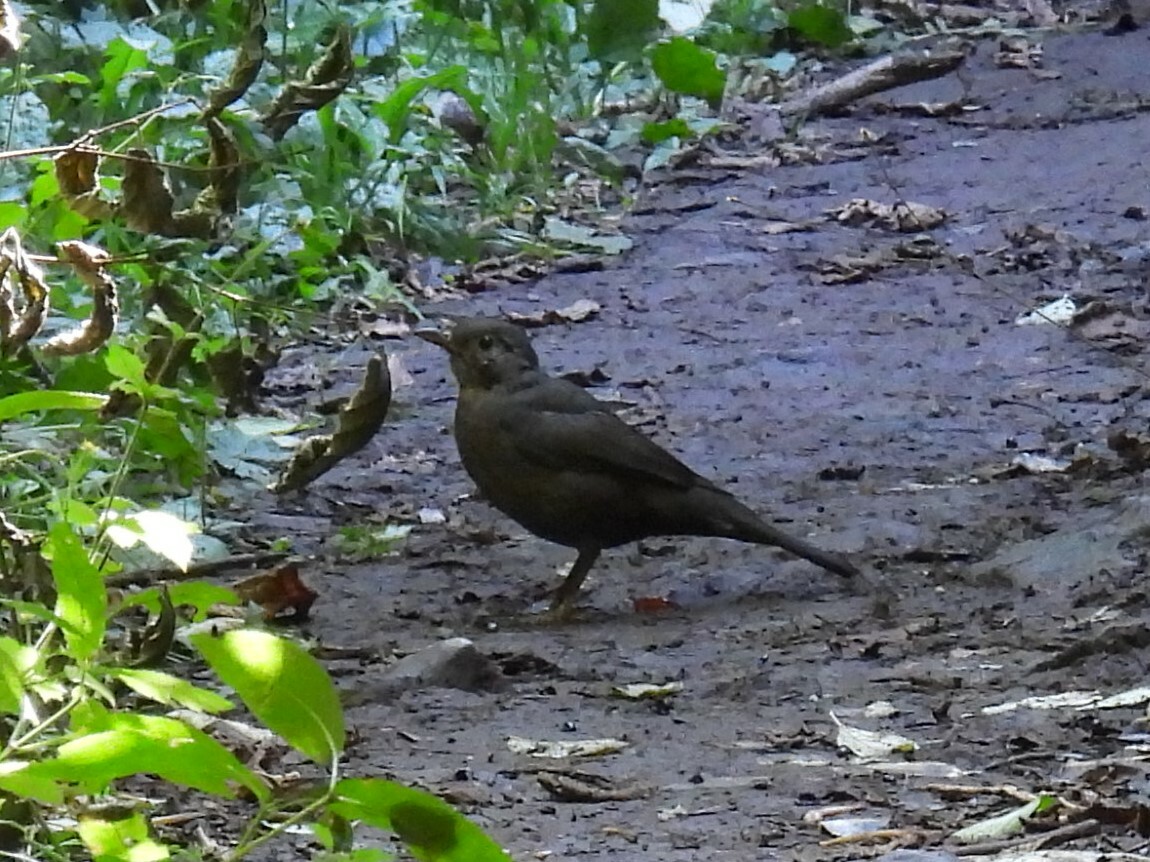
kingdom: Animalia
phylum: Chordata
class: Aves
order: Passeriformes
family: Turdidae
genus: Turdus
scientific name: Turdus merula
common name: Common blackbird
